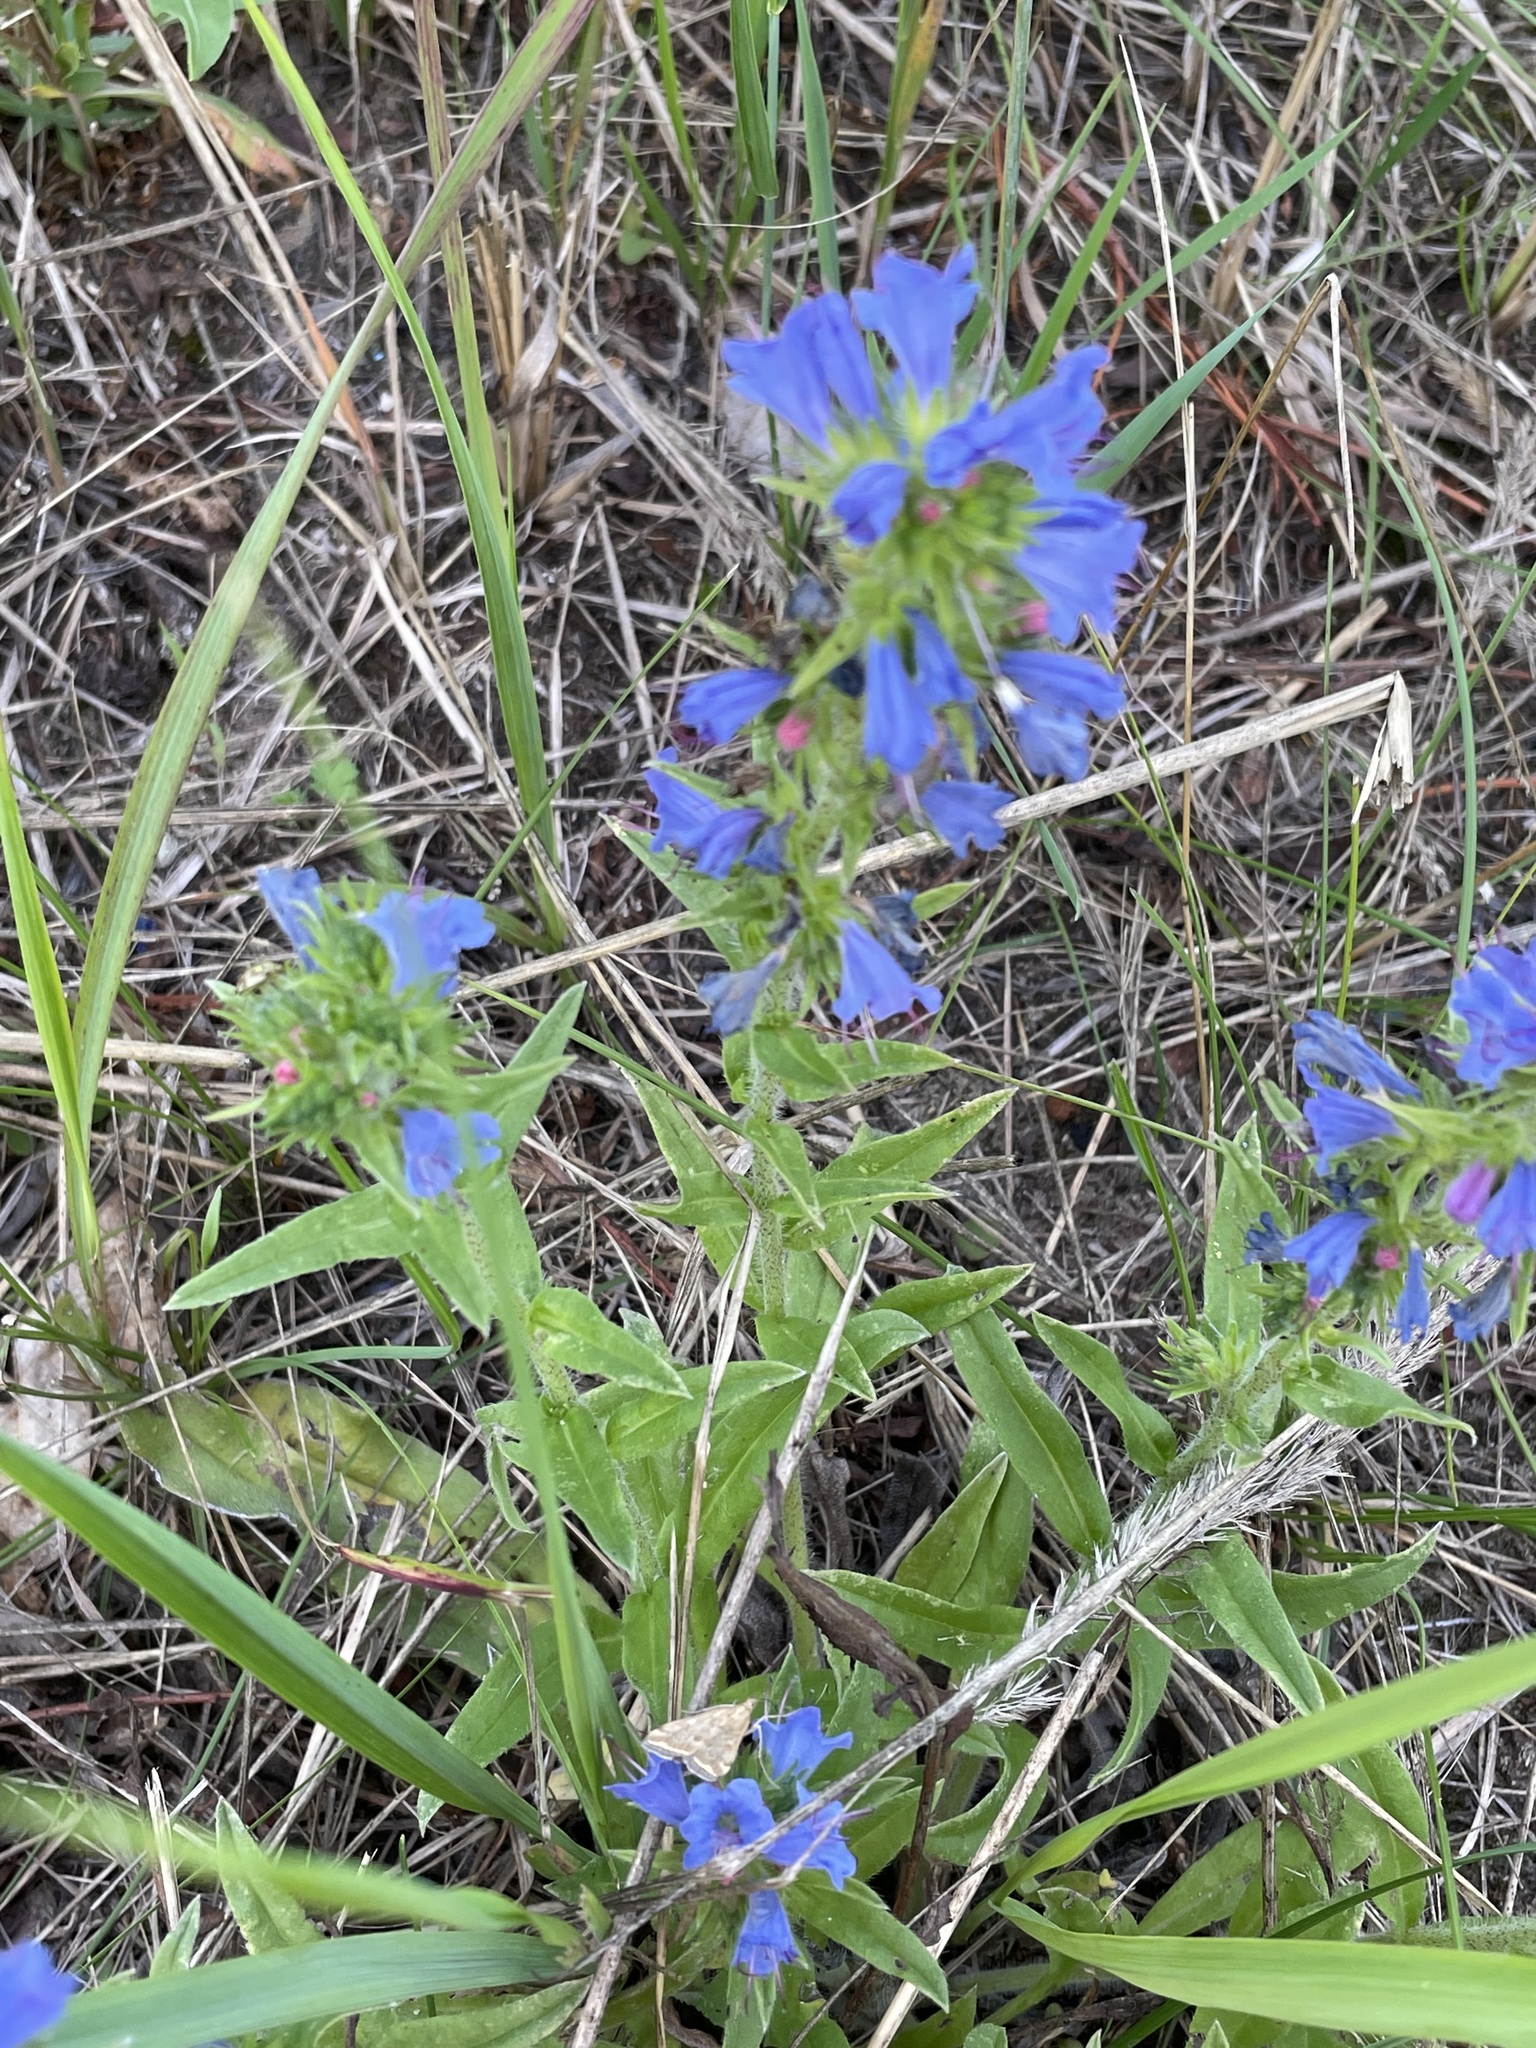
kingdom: Plantae
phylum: Tracheophyta
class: Magnoliopsida
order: Boraginales
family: Boraginaceae
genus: Echium
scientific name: Echium vulgare
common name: Common viper's bugloss
